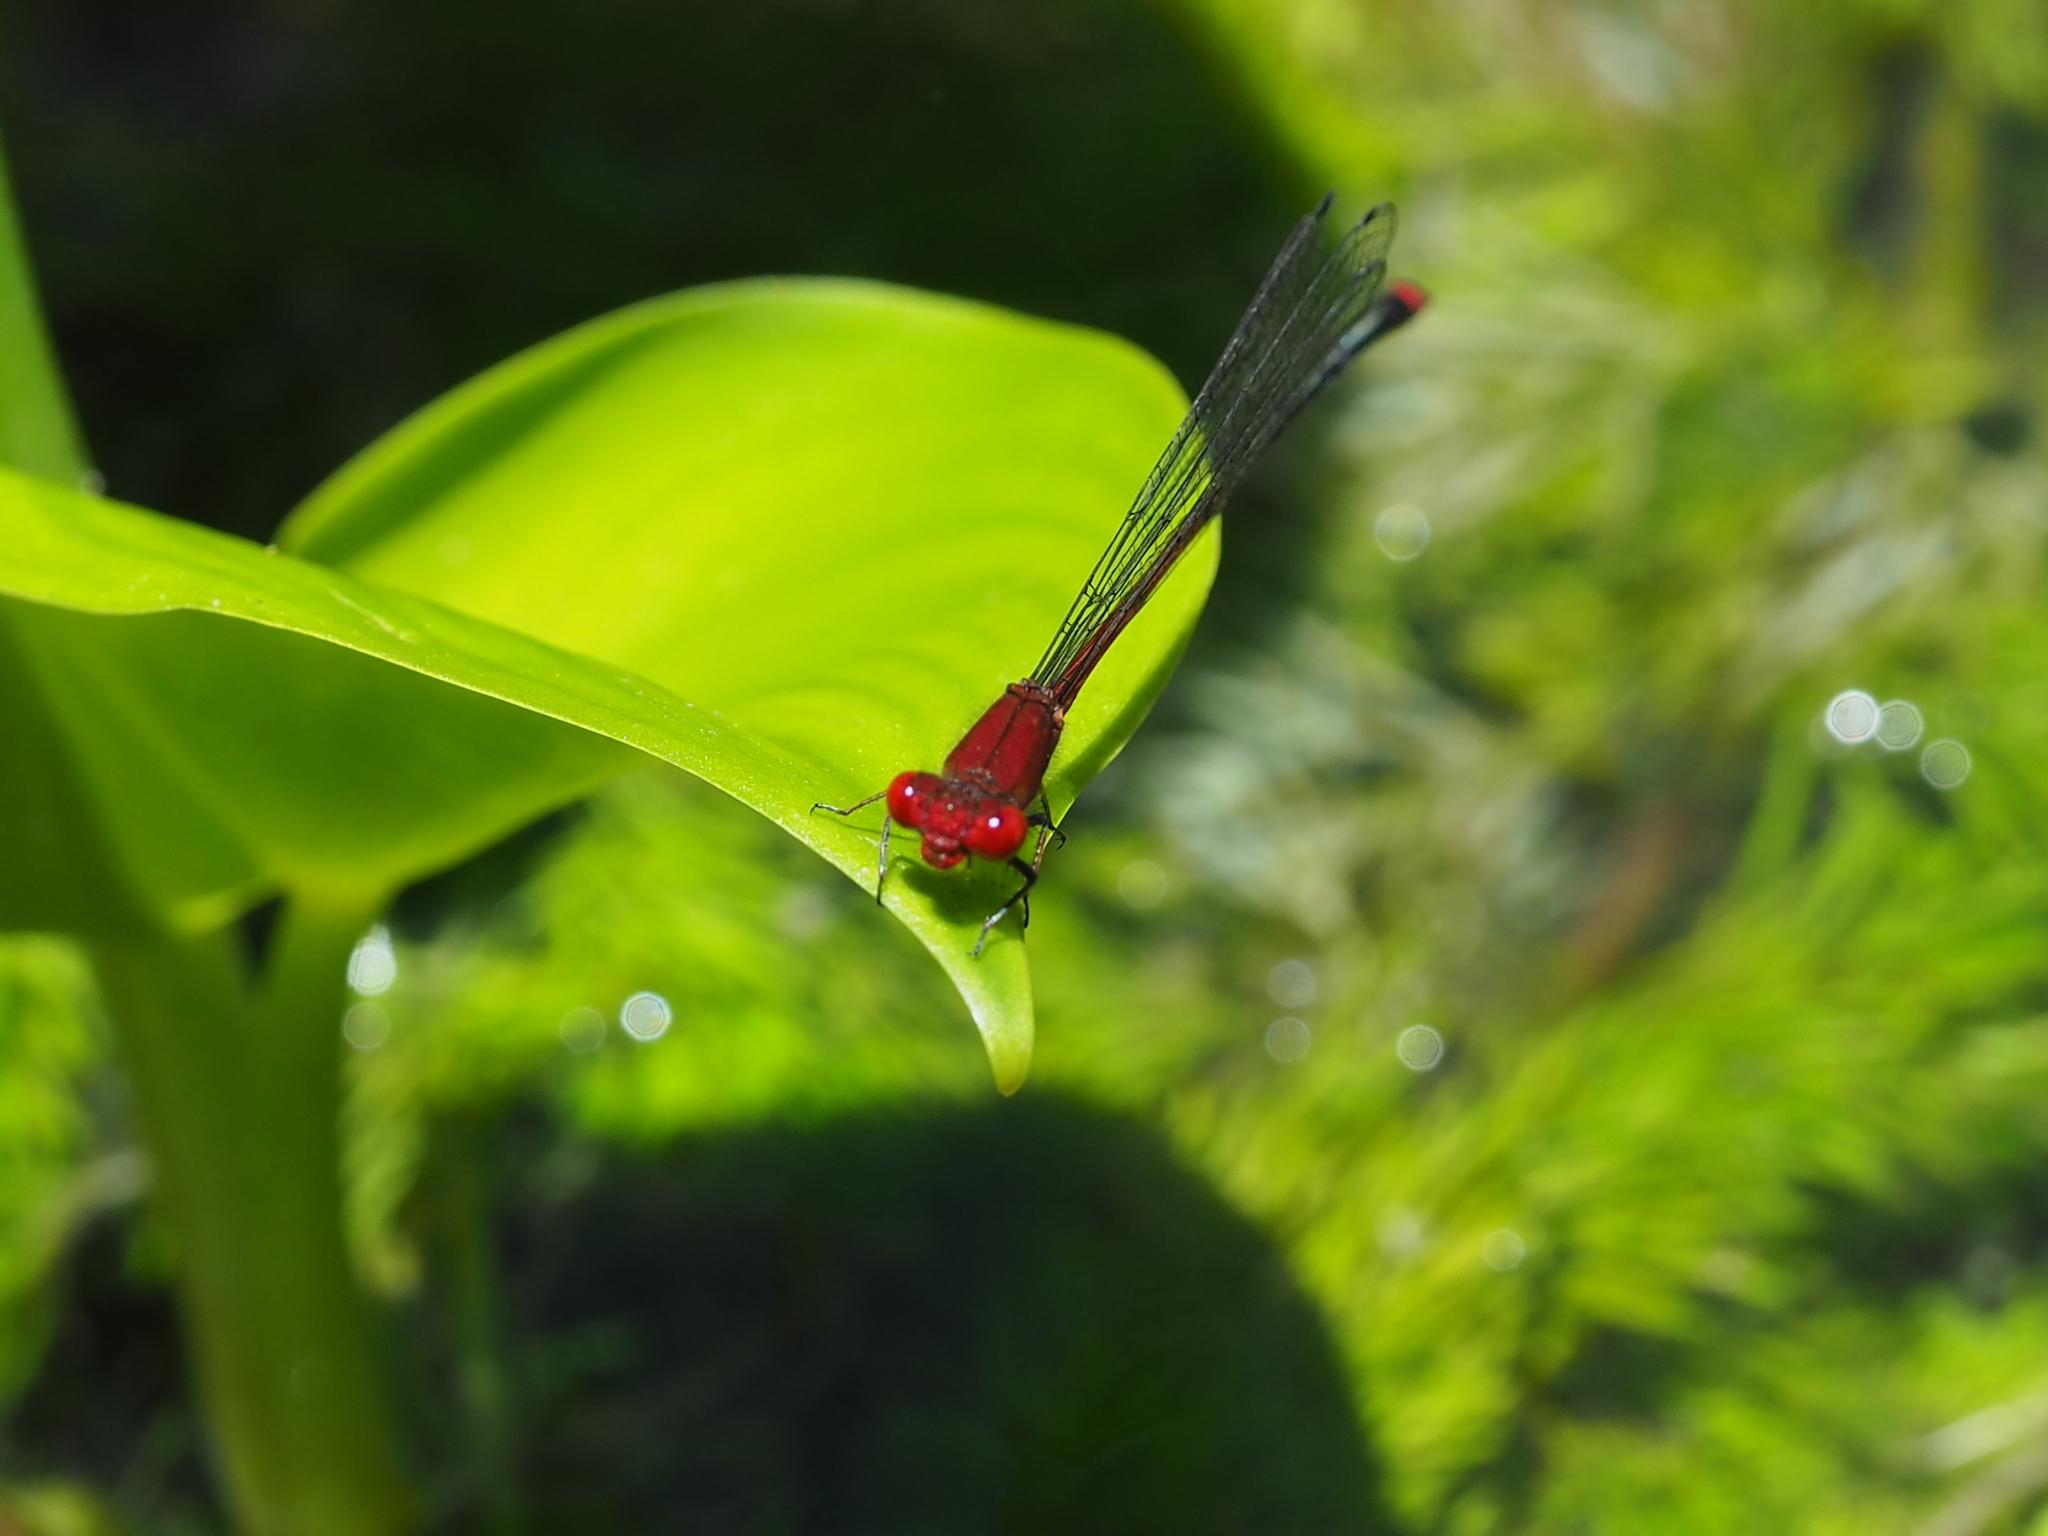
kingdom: Animalia
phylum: Arthropoda
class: Insecta
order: Odonata
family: Coenagrionidae
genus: Pseudagrion
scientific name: Pseudagrion pilidorsum
